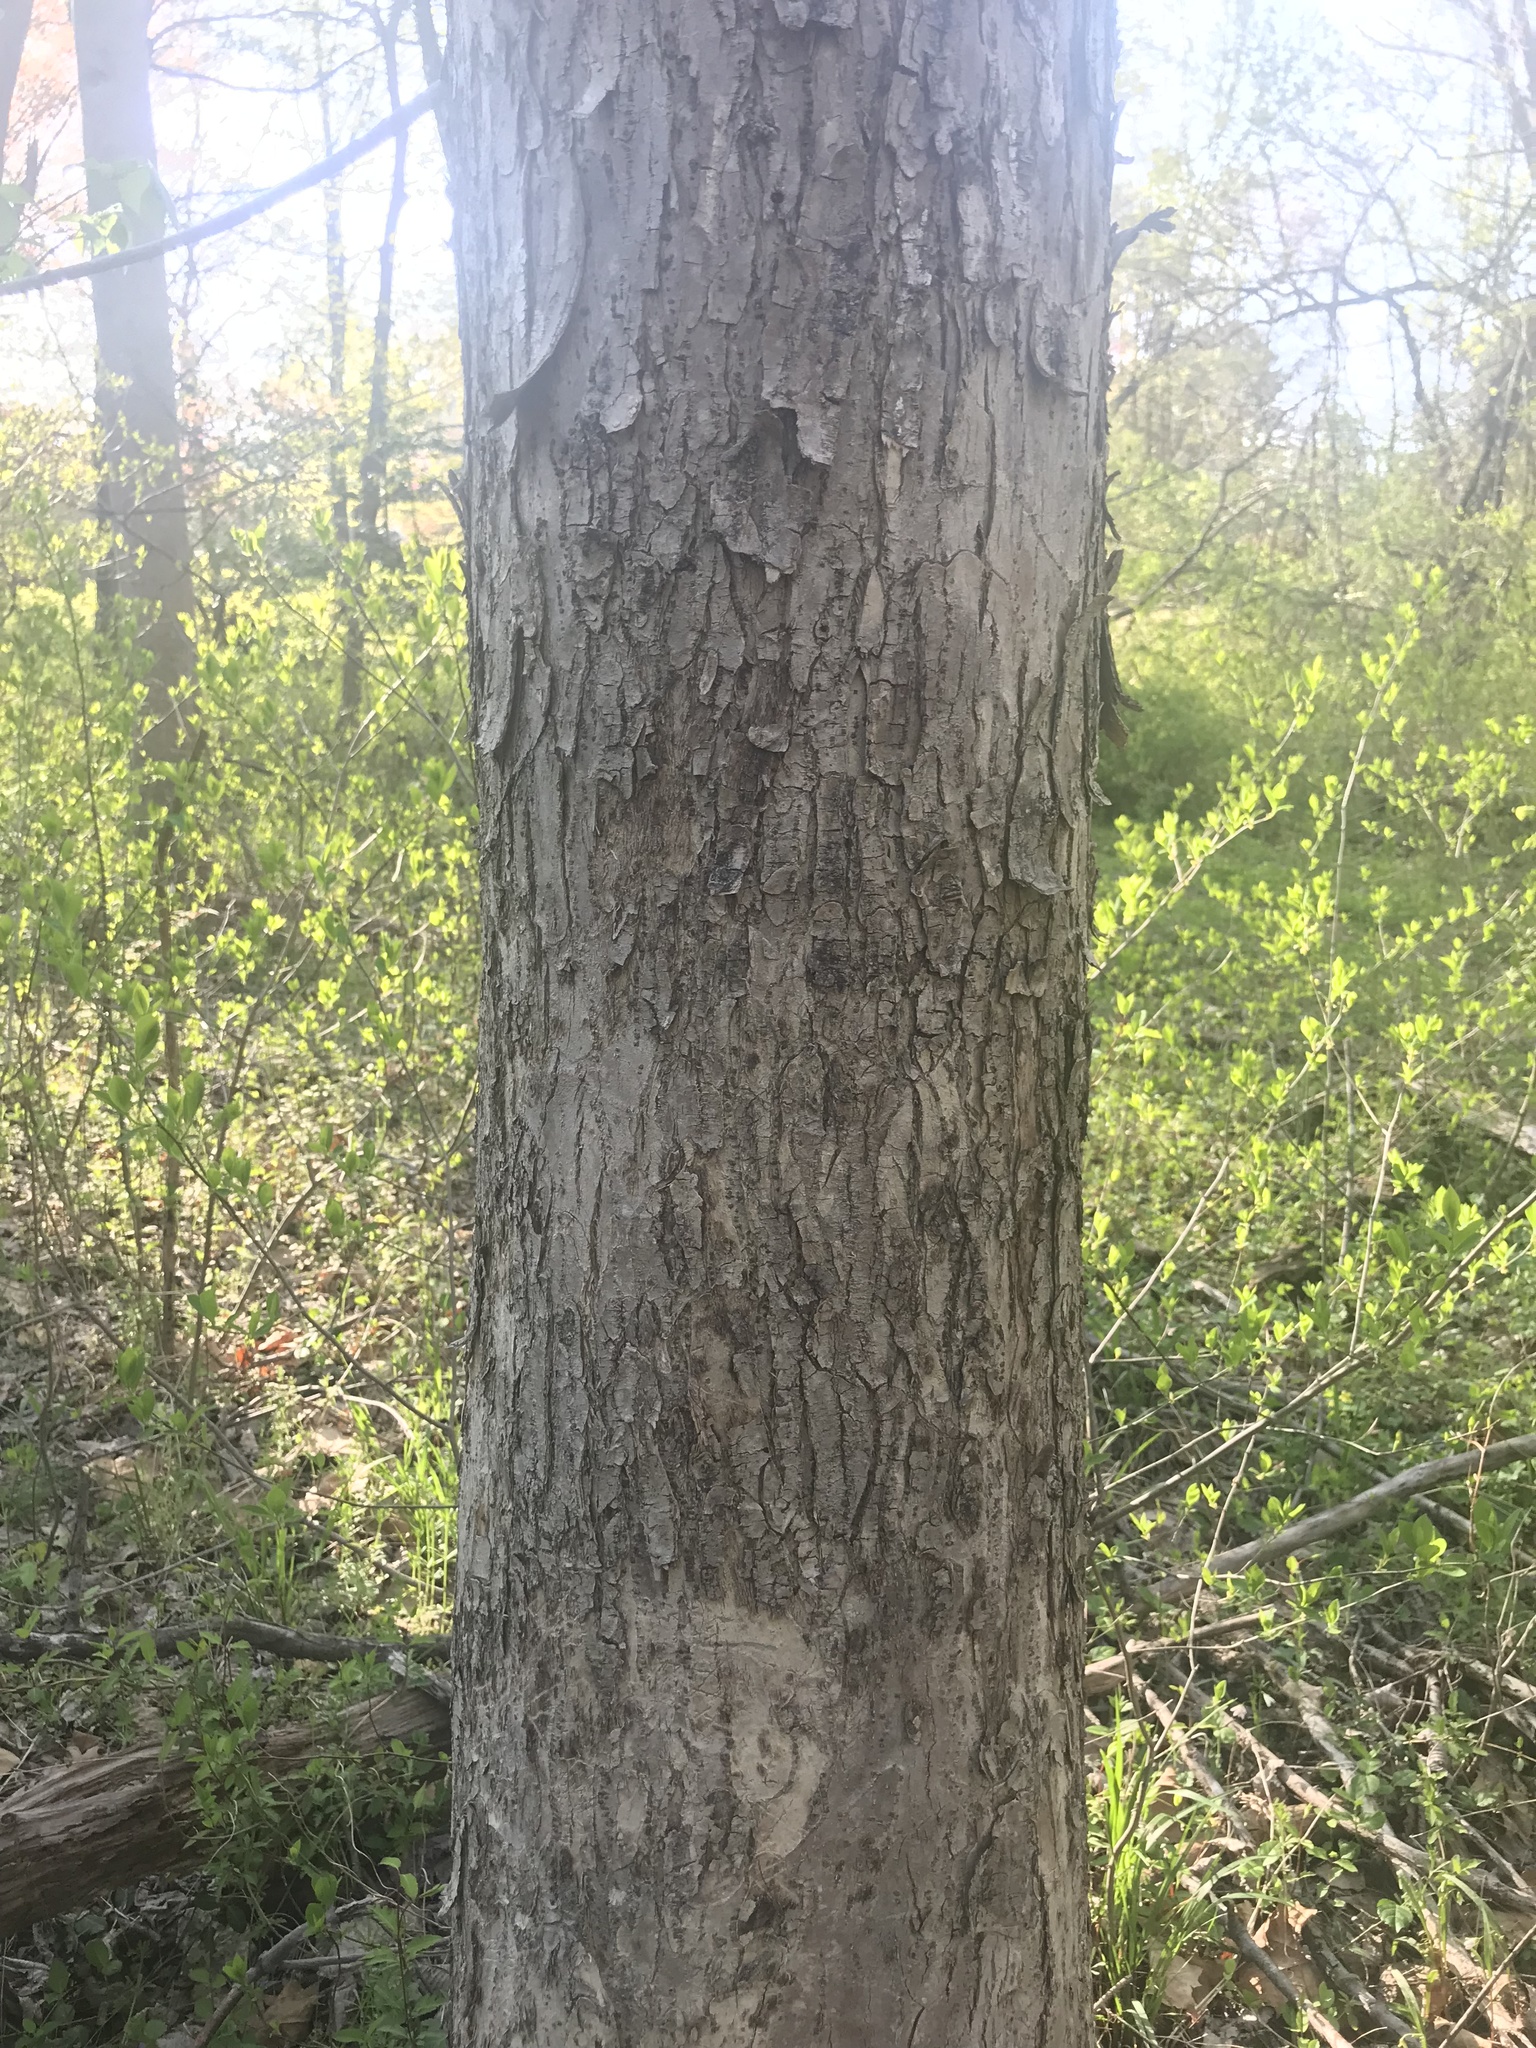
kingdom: Plantae
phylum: Tracheophyta
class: Magnoliopsida
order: Laurales
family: Lauraceae
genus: Lindera
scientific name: Lindera benzoin
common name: Spicebush
